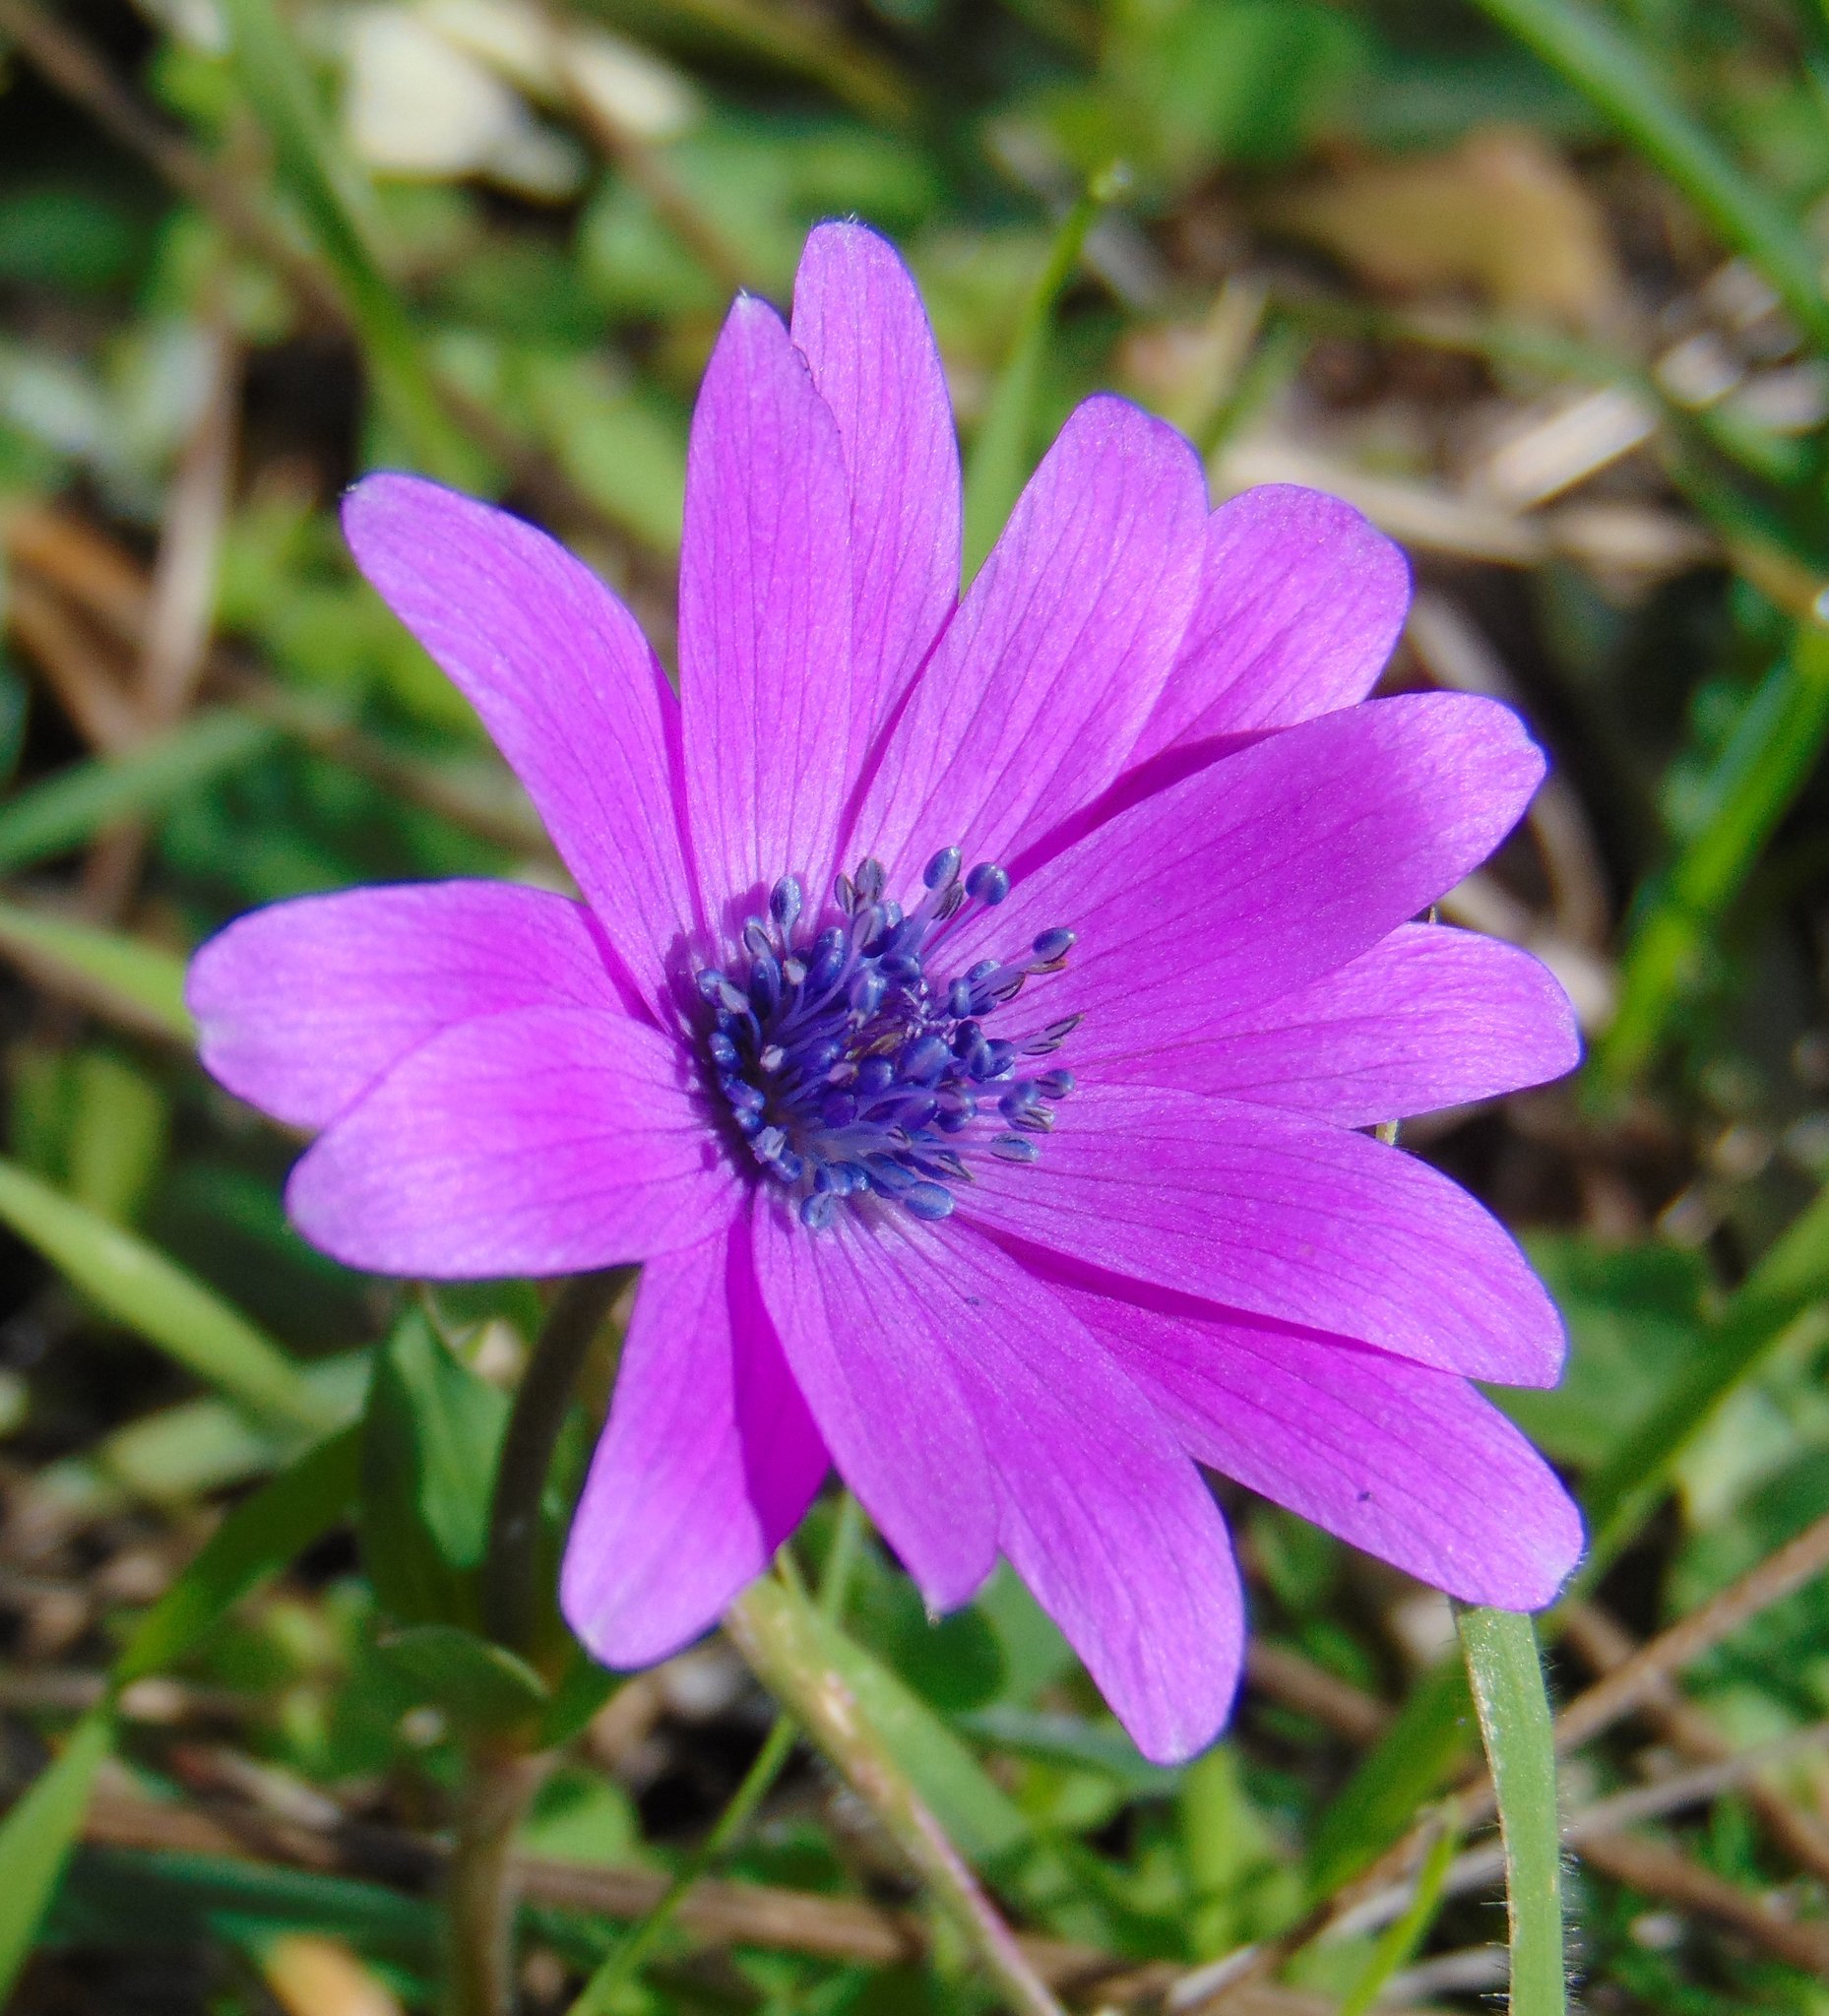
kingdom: Plantae
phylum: Tracheophyta
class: Magnoliopsida
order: Ranunculales
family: Ranunculaceae
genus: Anemone
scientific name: Anemone hortensis
